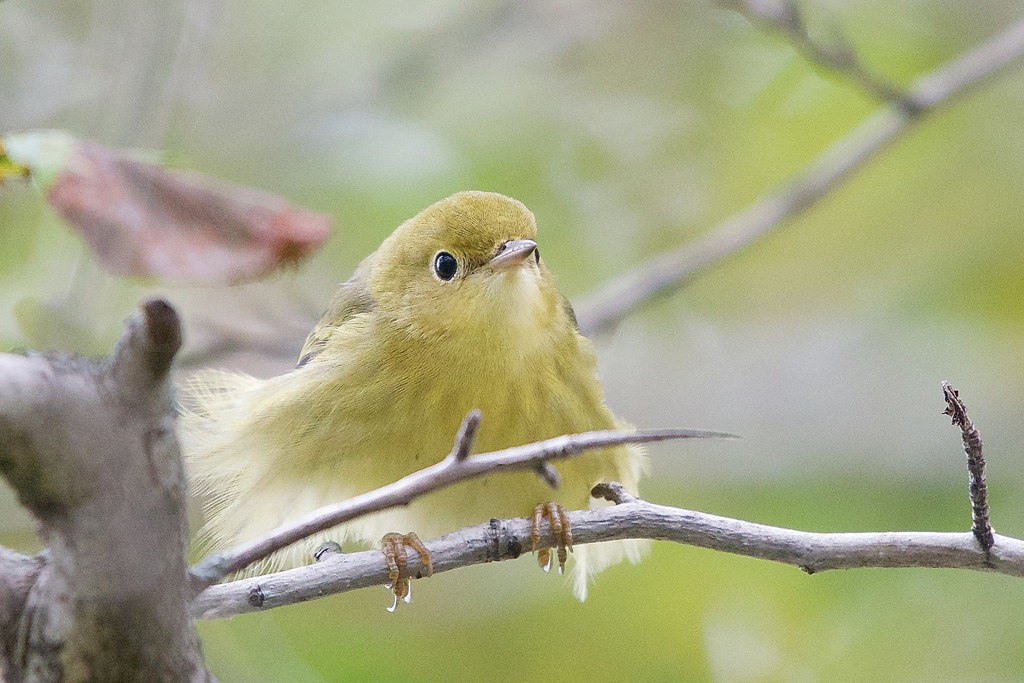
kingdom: Animalia
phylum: Chordata
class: Aves
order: Passeriformes
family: Parulidae
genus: Setophaga
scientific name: Setophaga petechia
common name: Yellow warbler
